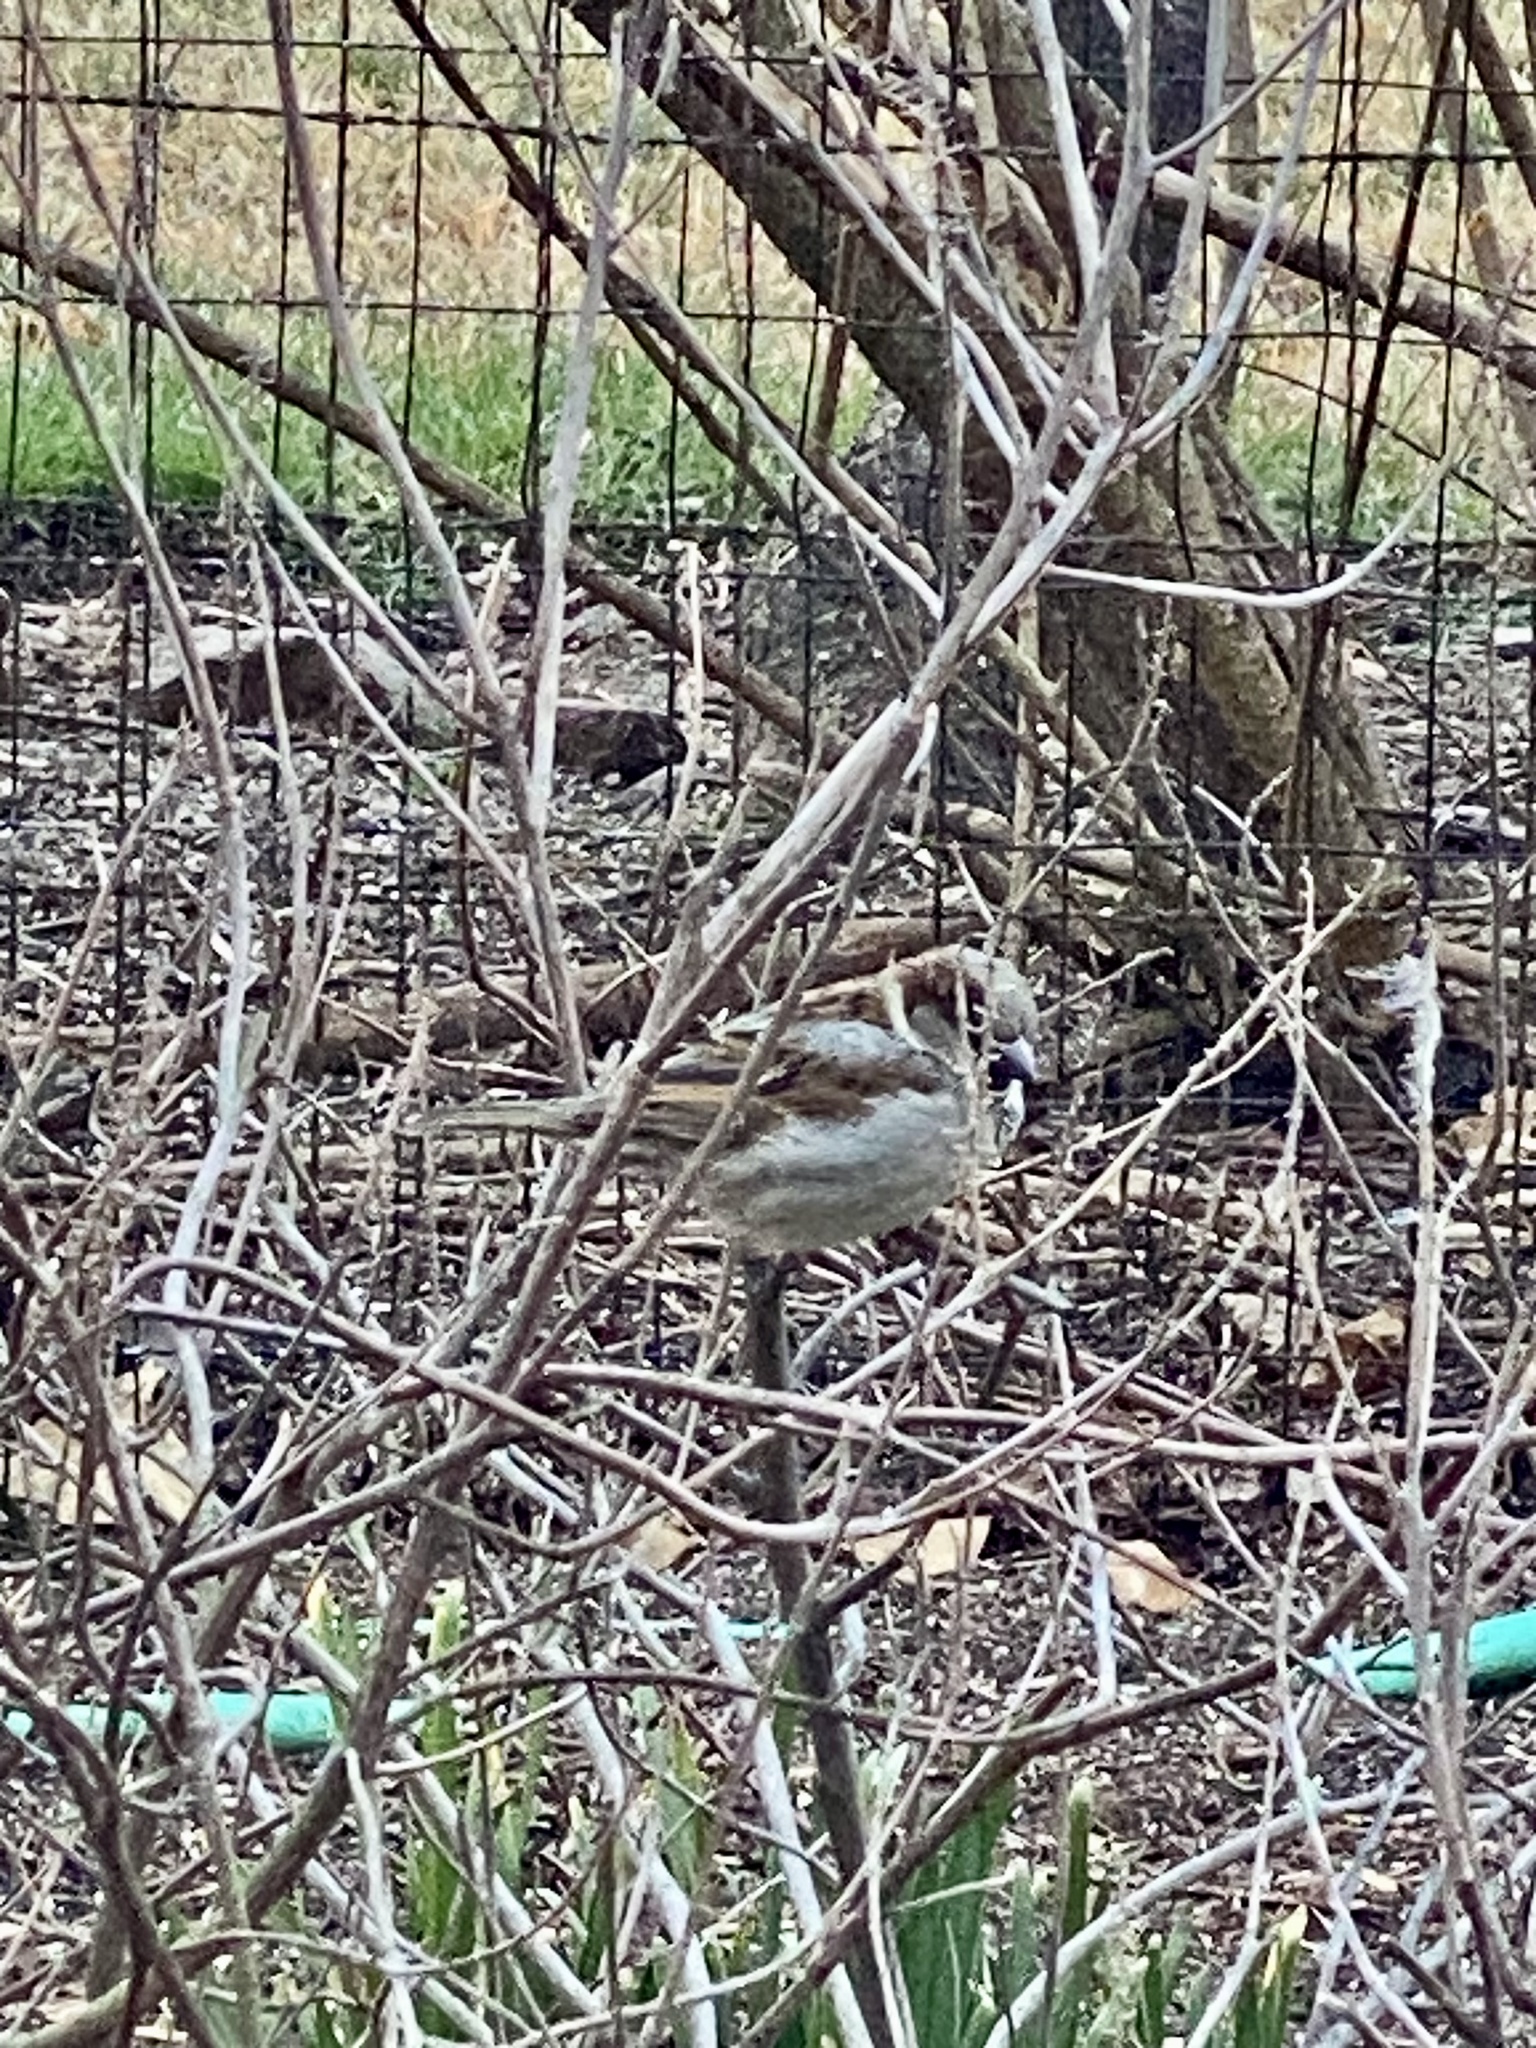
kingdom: Animalia
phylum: Chordata
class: Aves
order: Passeriformes
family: Passeridae
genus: Passer
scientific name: Passer domesticus
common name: House sparrow
